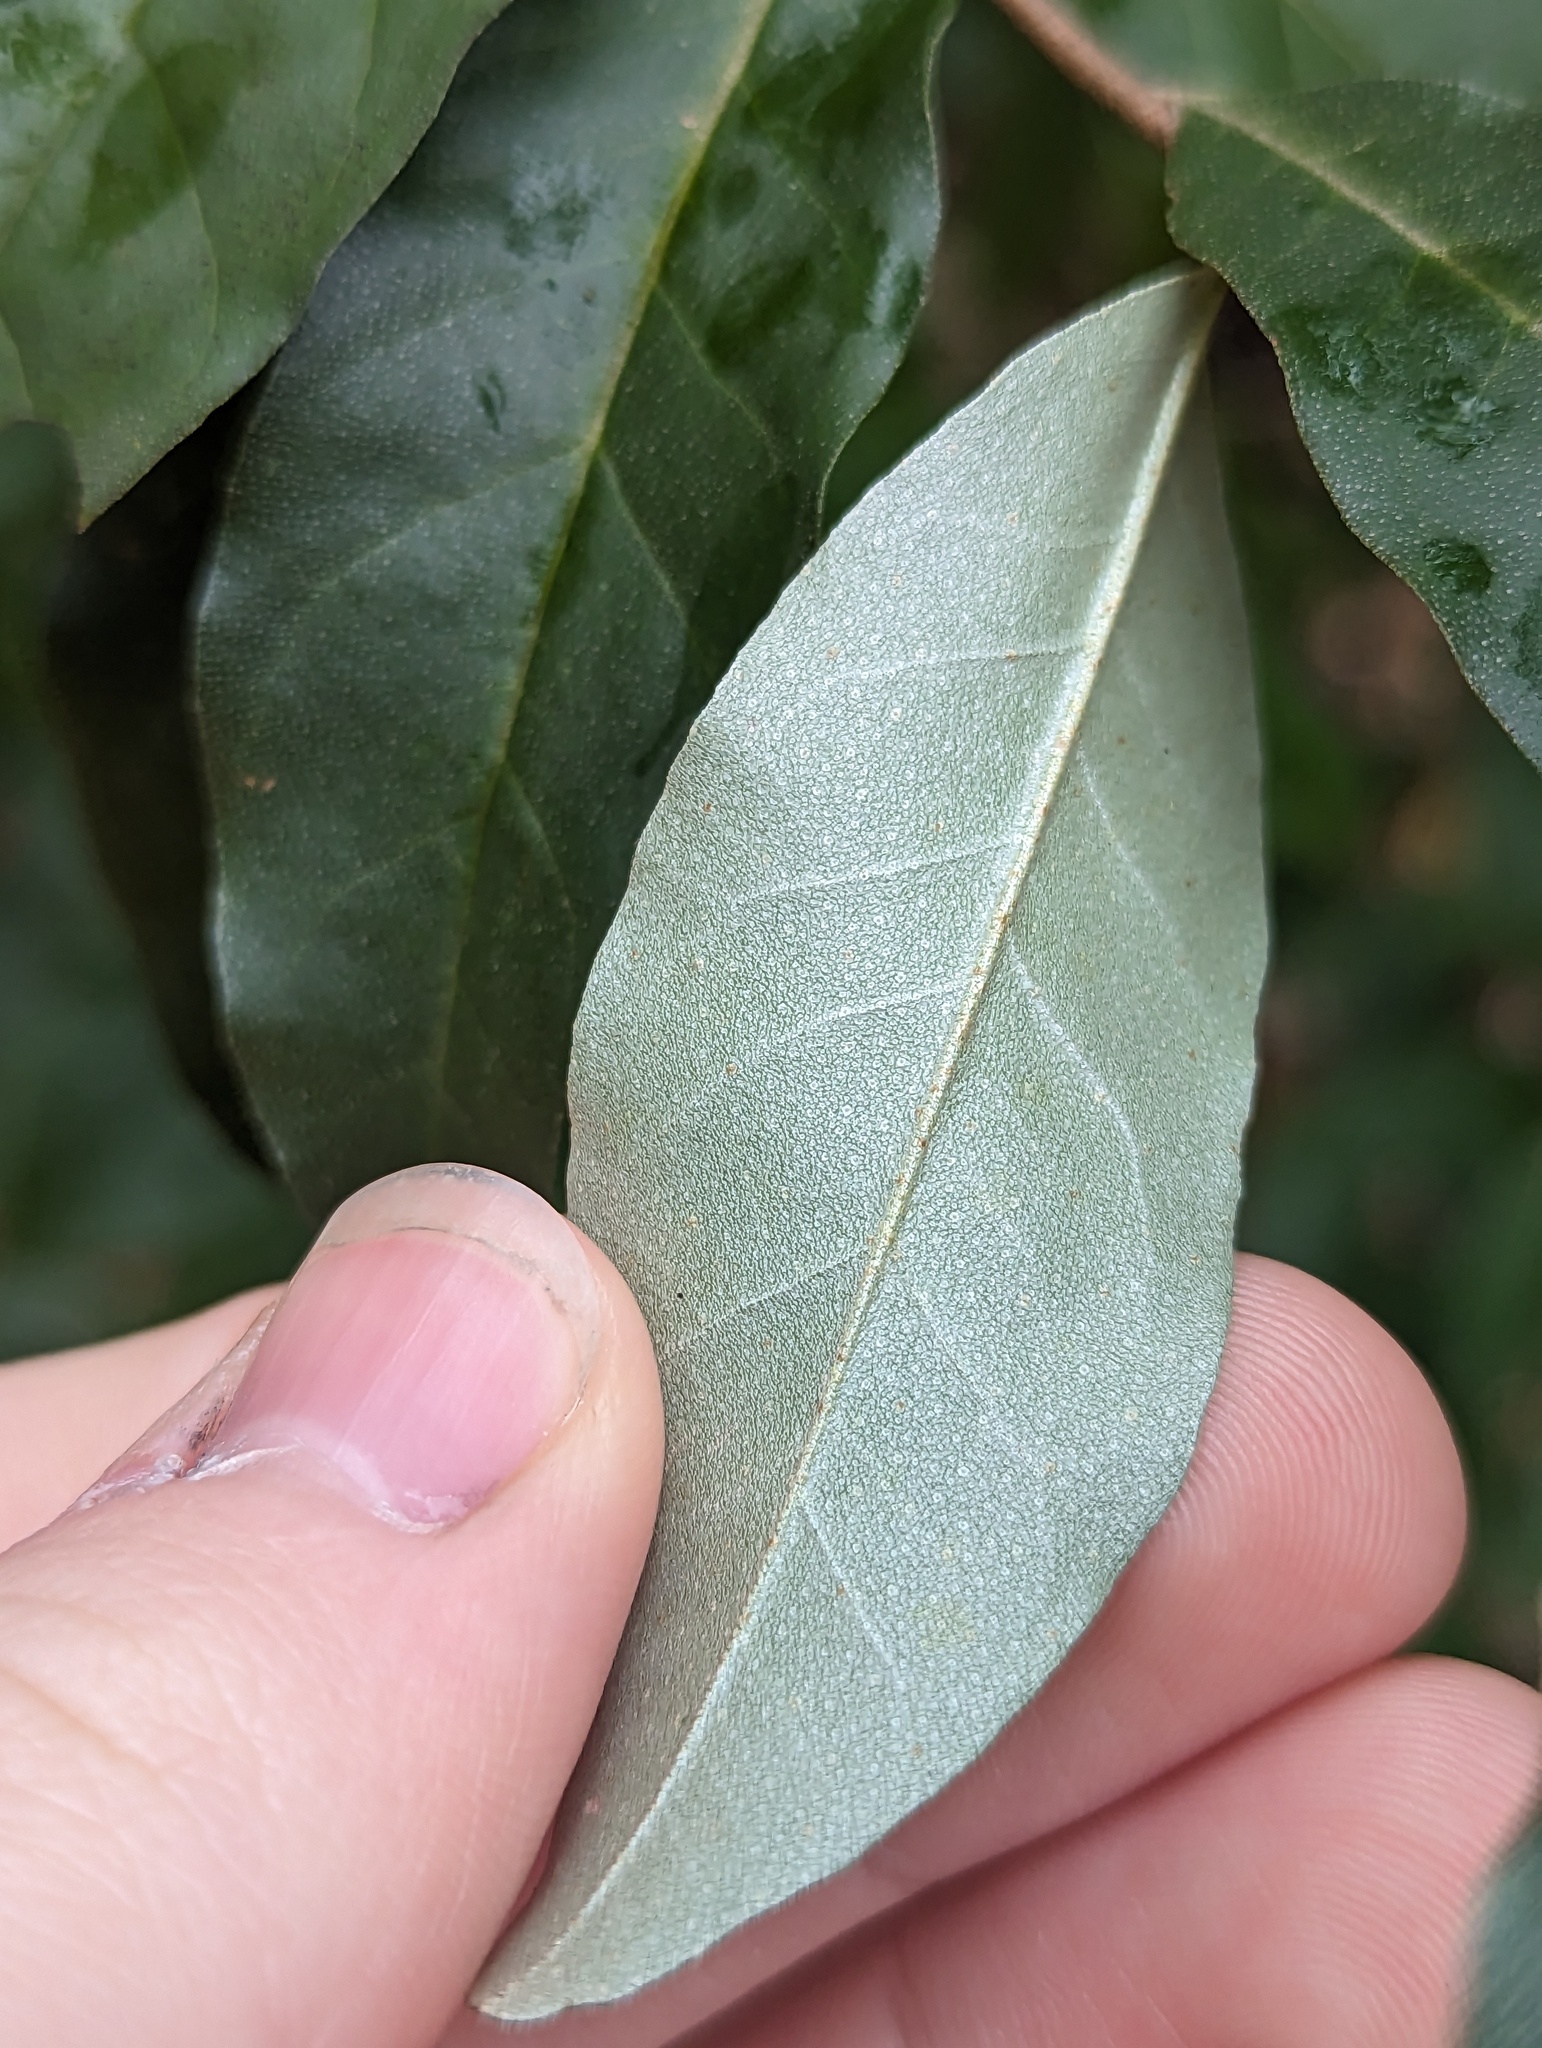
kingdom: Plantae
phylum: Tracheophyta
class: Magnoliopsida
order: Rosales
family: Elaeagnaceae
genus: Elaeagnus
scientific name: Elaeagnus umbellata
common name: Autumn olive
